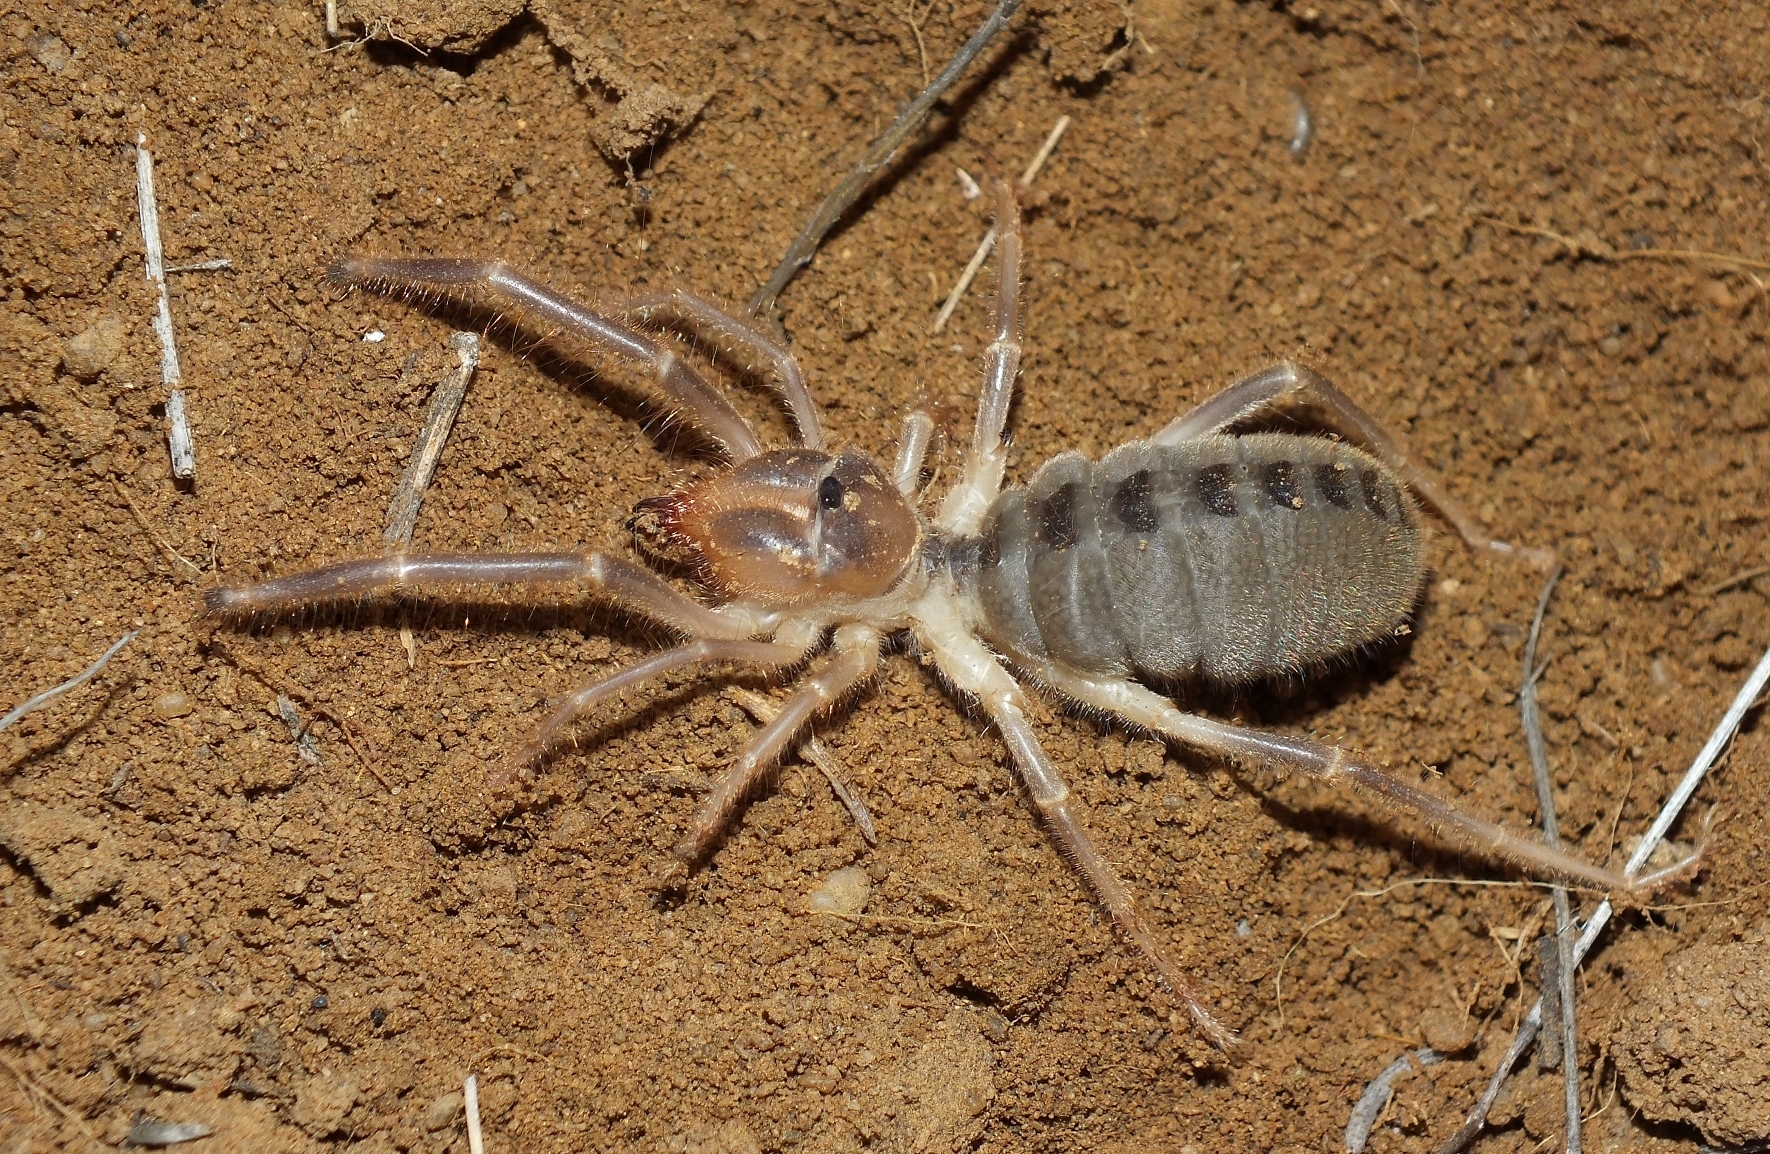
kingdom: Animalia
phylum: Arthropoda
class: Arachnida
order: Solifugae
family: Galeodidae
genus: Galeodes
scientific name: Galeodes araneoides
